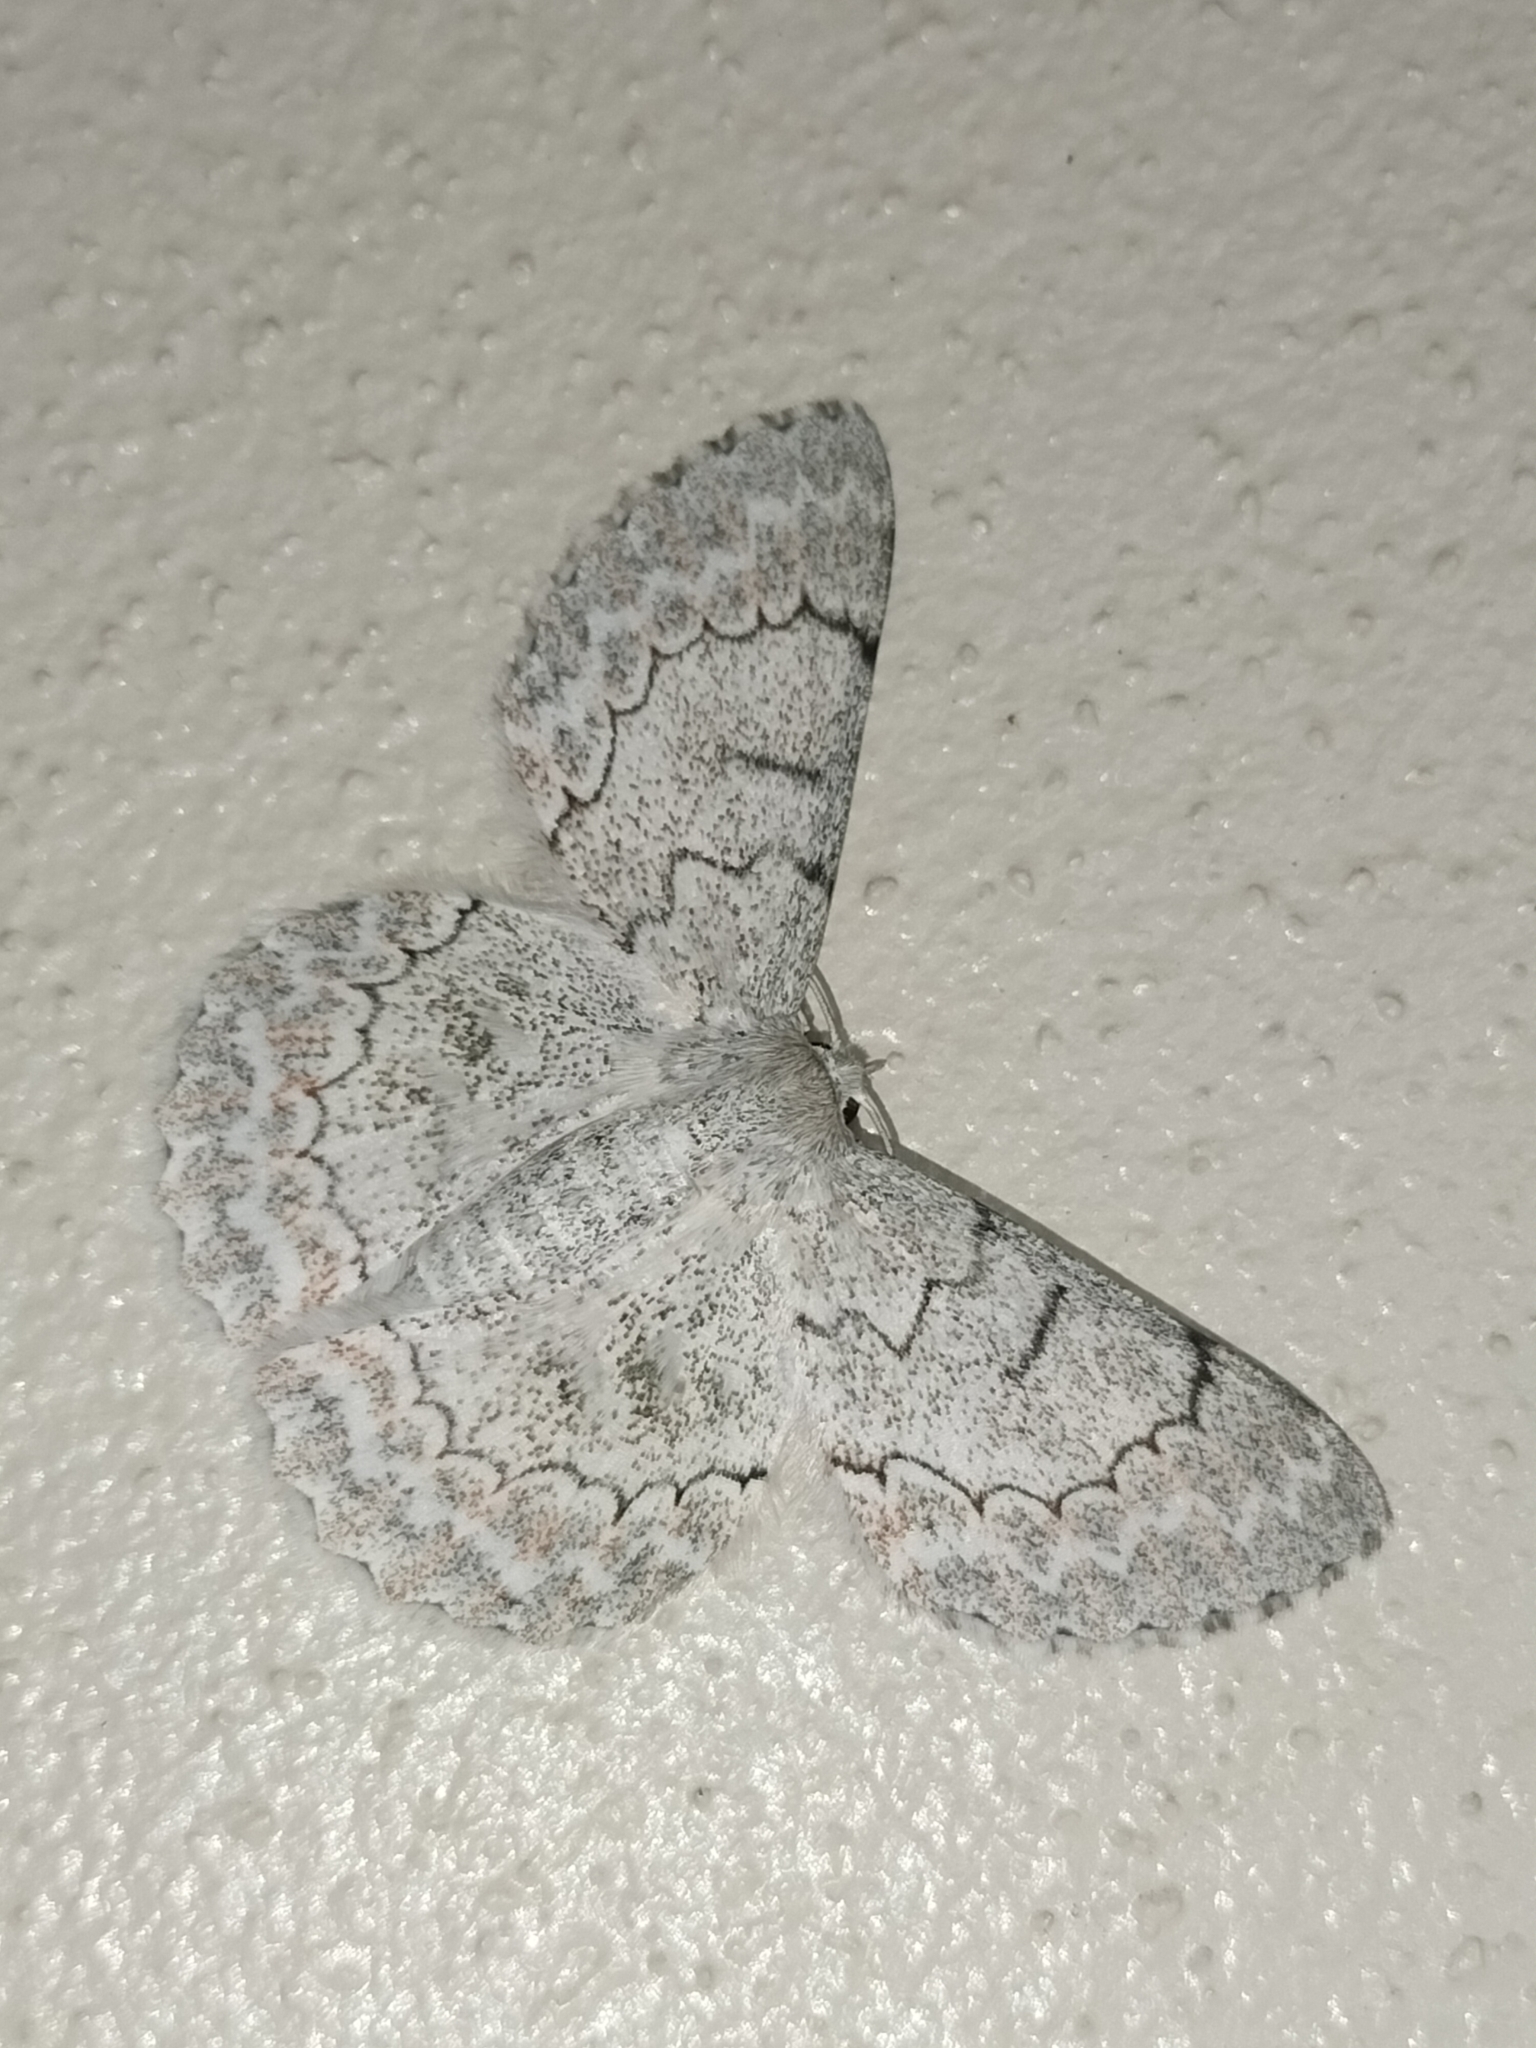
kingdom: Animalia
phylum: Arthropoda
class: Insecta
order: Lepidoptera
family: Geometridae
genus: Pingasa
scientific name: Pingasa chlora
